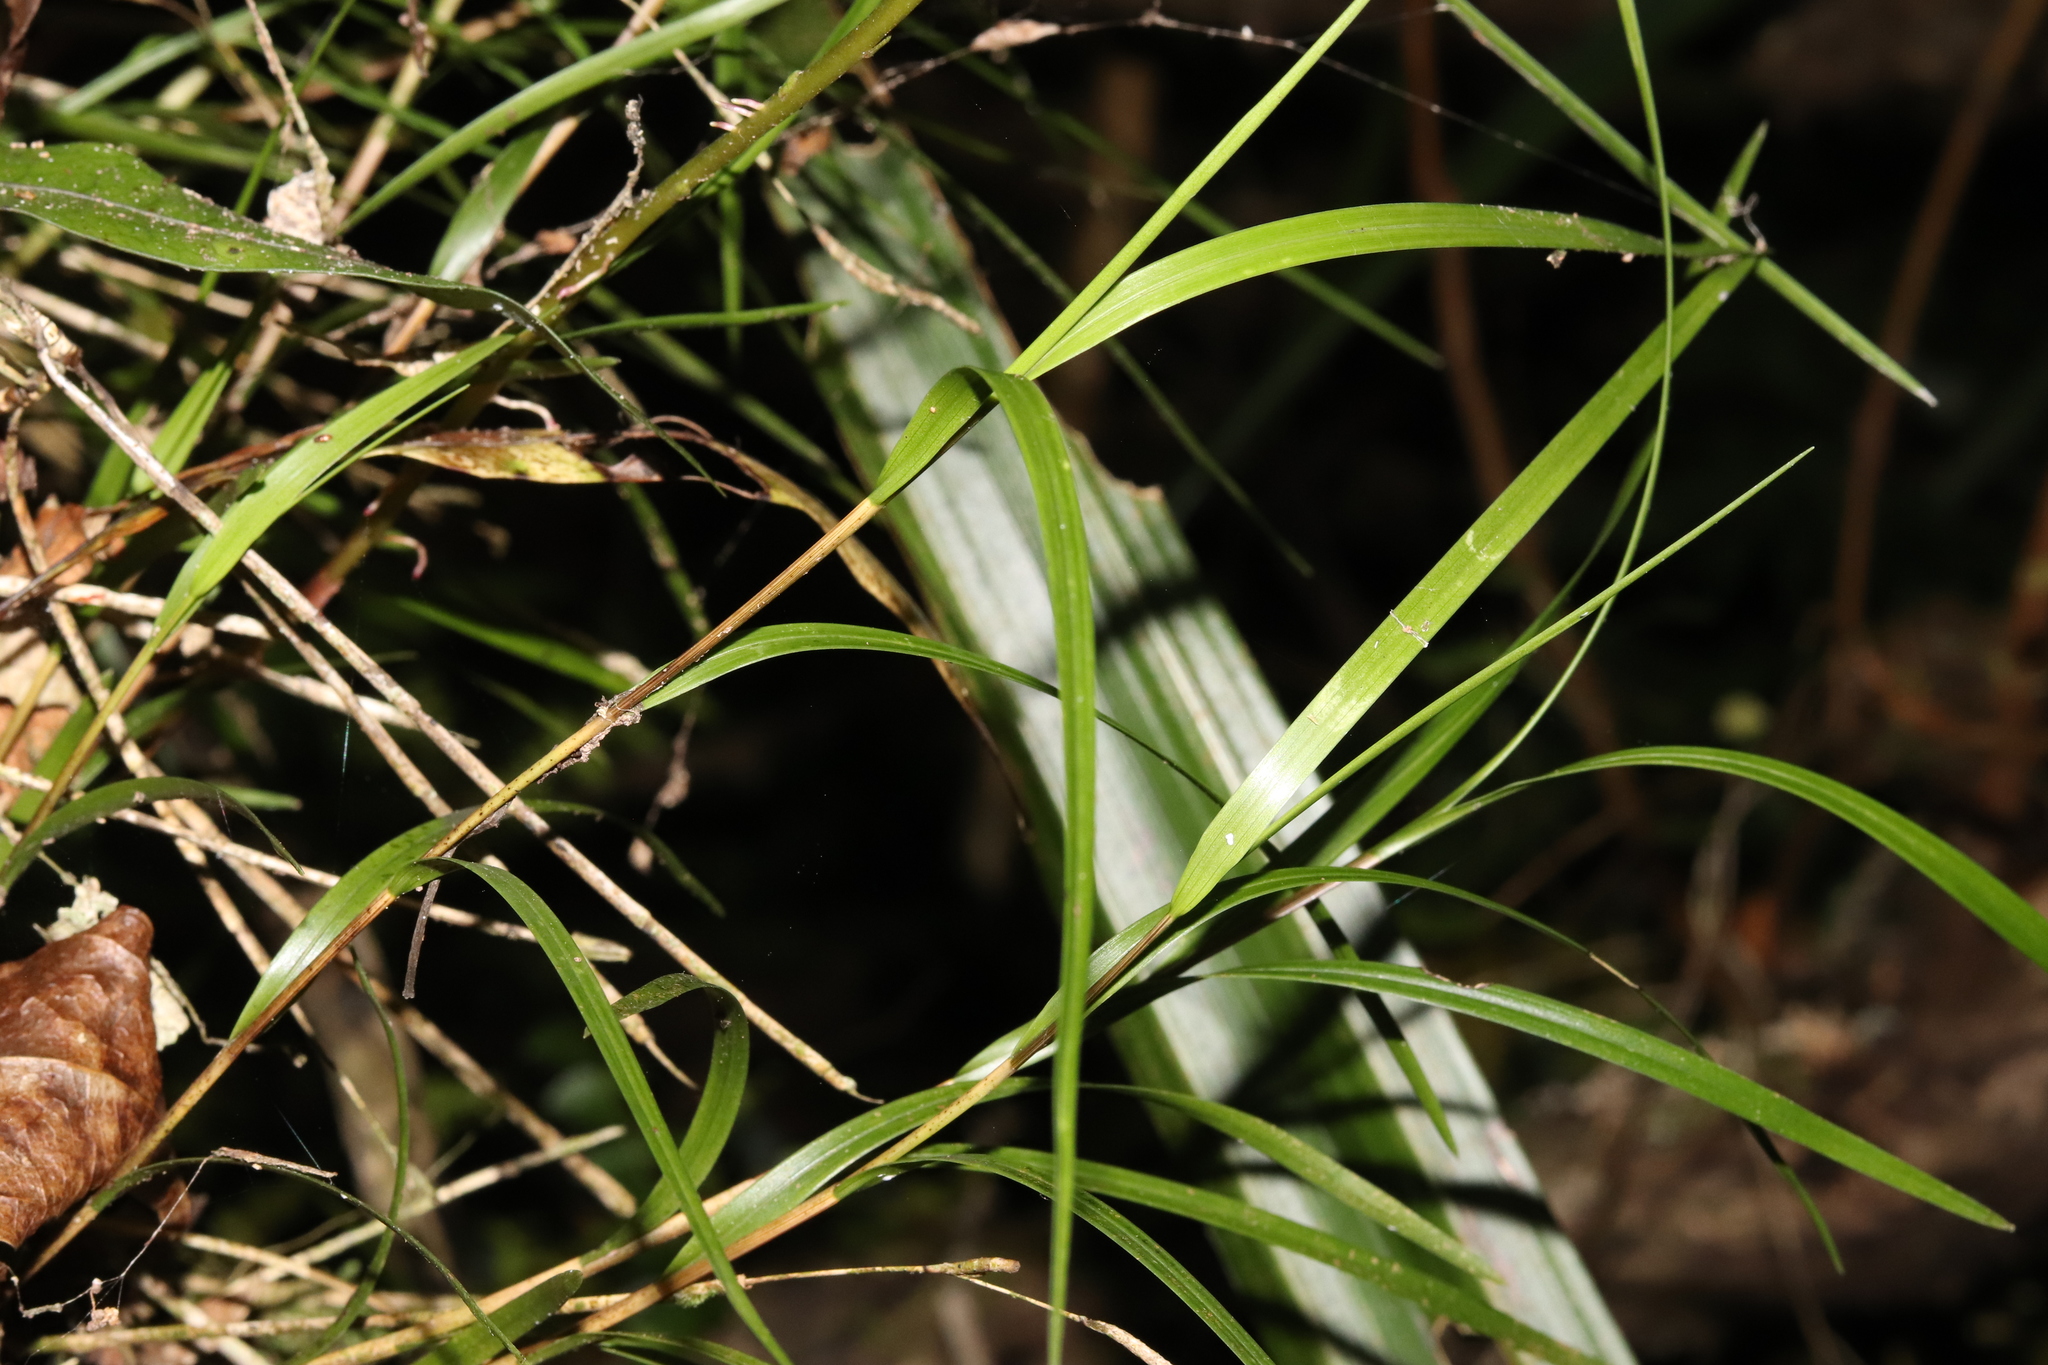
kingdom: Plantae
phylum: Tracheophyta
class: Liliopsida
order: Asparagales
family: Orchidaceae
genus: Earina
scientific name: Earina mucronata
